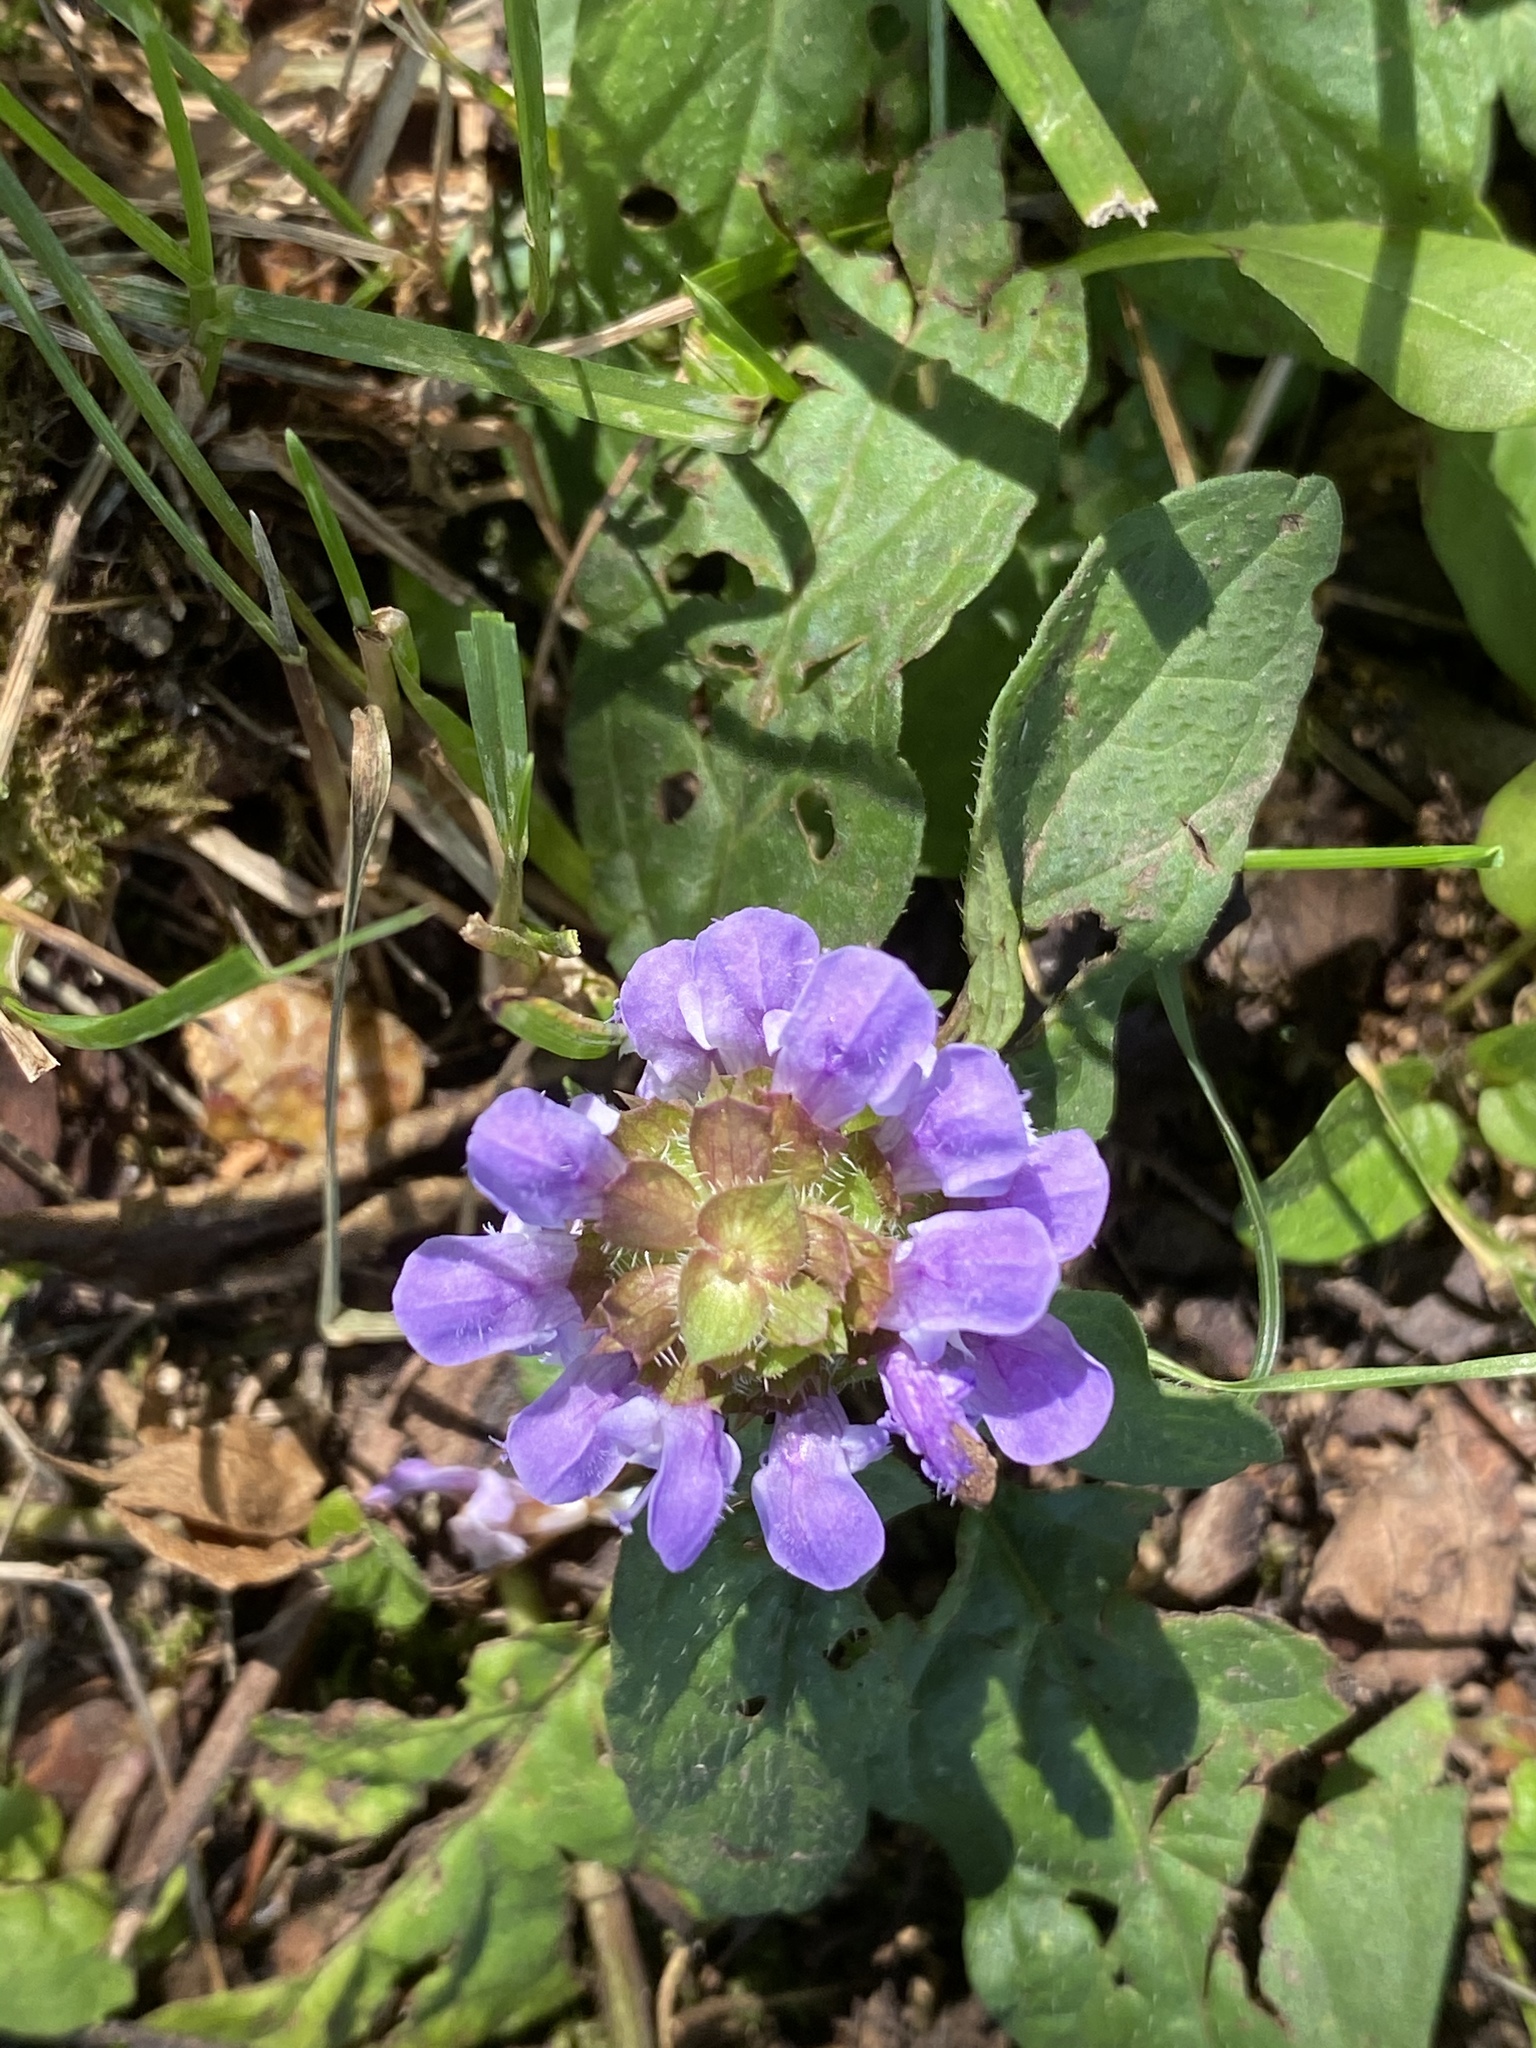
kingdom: Plantae
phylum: Tracheophyta
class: Magnoliopsida
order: Lamiales
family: Lamiaceae
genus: Prunella
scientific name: Prunella vulgaris
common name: Heal-all
